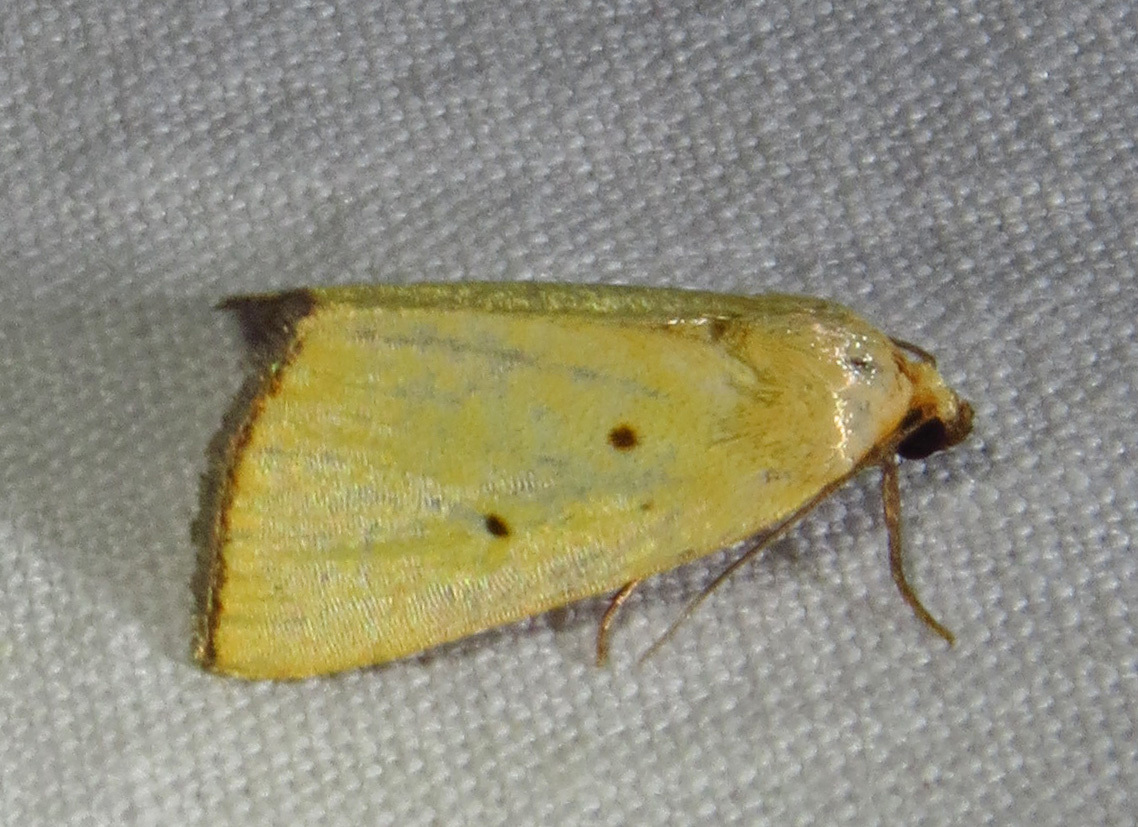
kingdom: Animalia
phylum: Arthropoda
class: Insecta
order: Lepidoptera
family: Noctuidae
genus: Marimatha
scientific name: Marimatha nigrofimbria
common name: Black-bordered lemon moth
